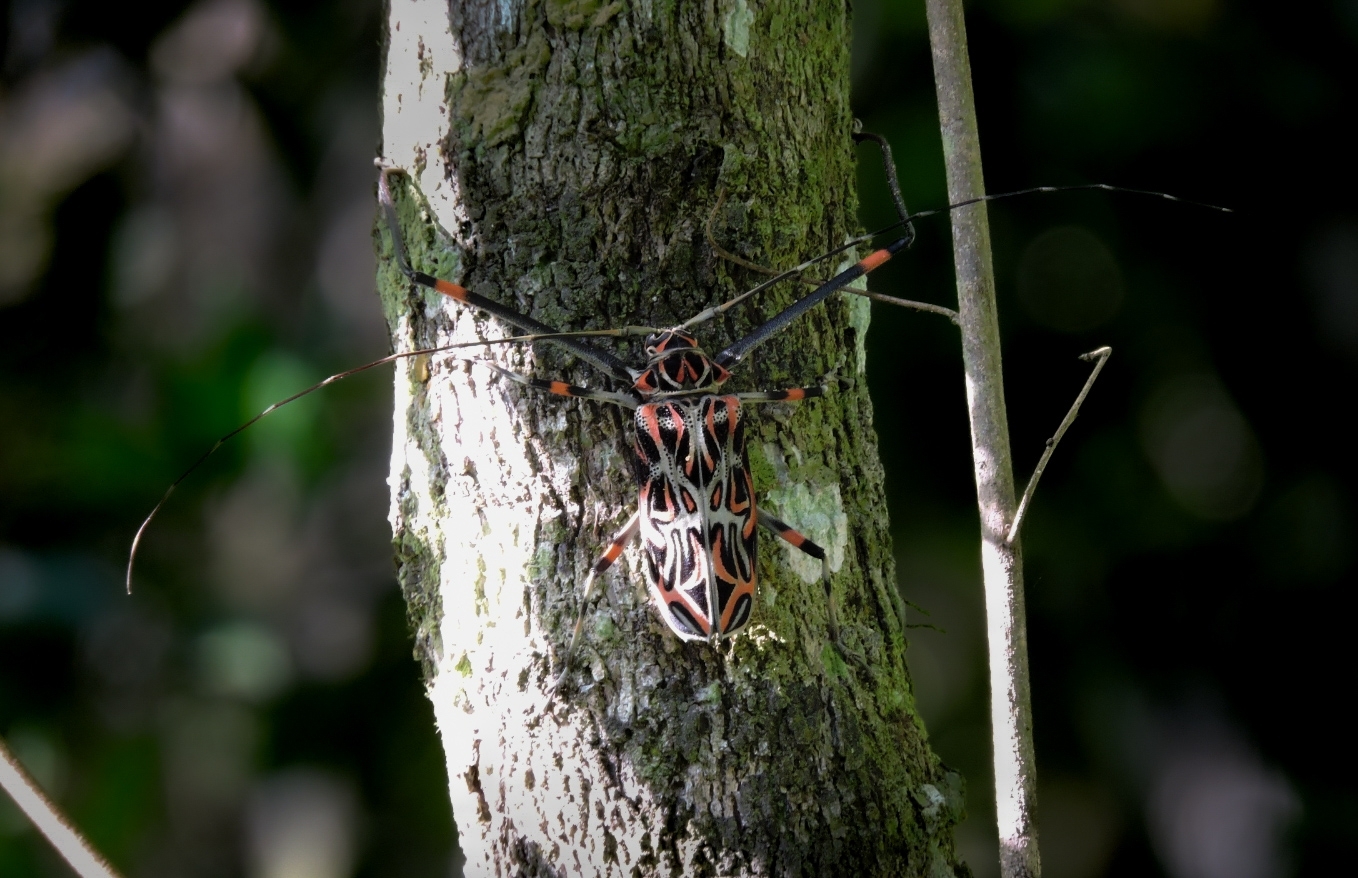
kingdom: Animalia
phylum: Arthropoda
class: Insecta
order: Coleoptera
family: Cerambycidae
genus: Acrocinus
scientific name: Acrocinus longimanus
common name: Arlequin
